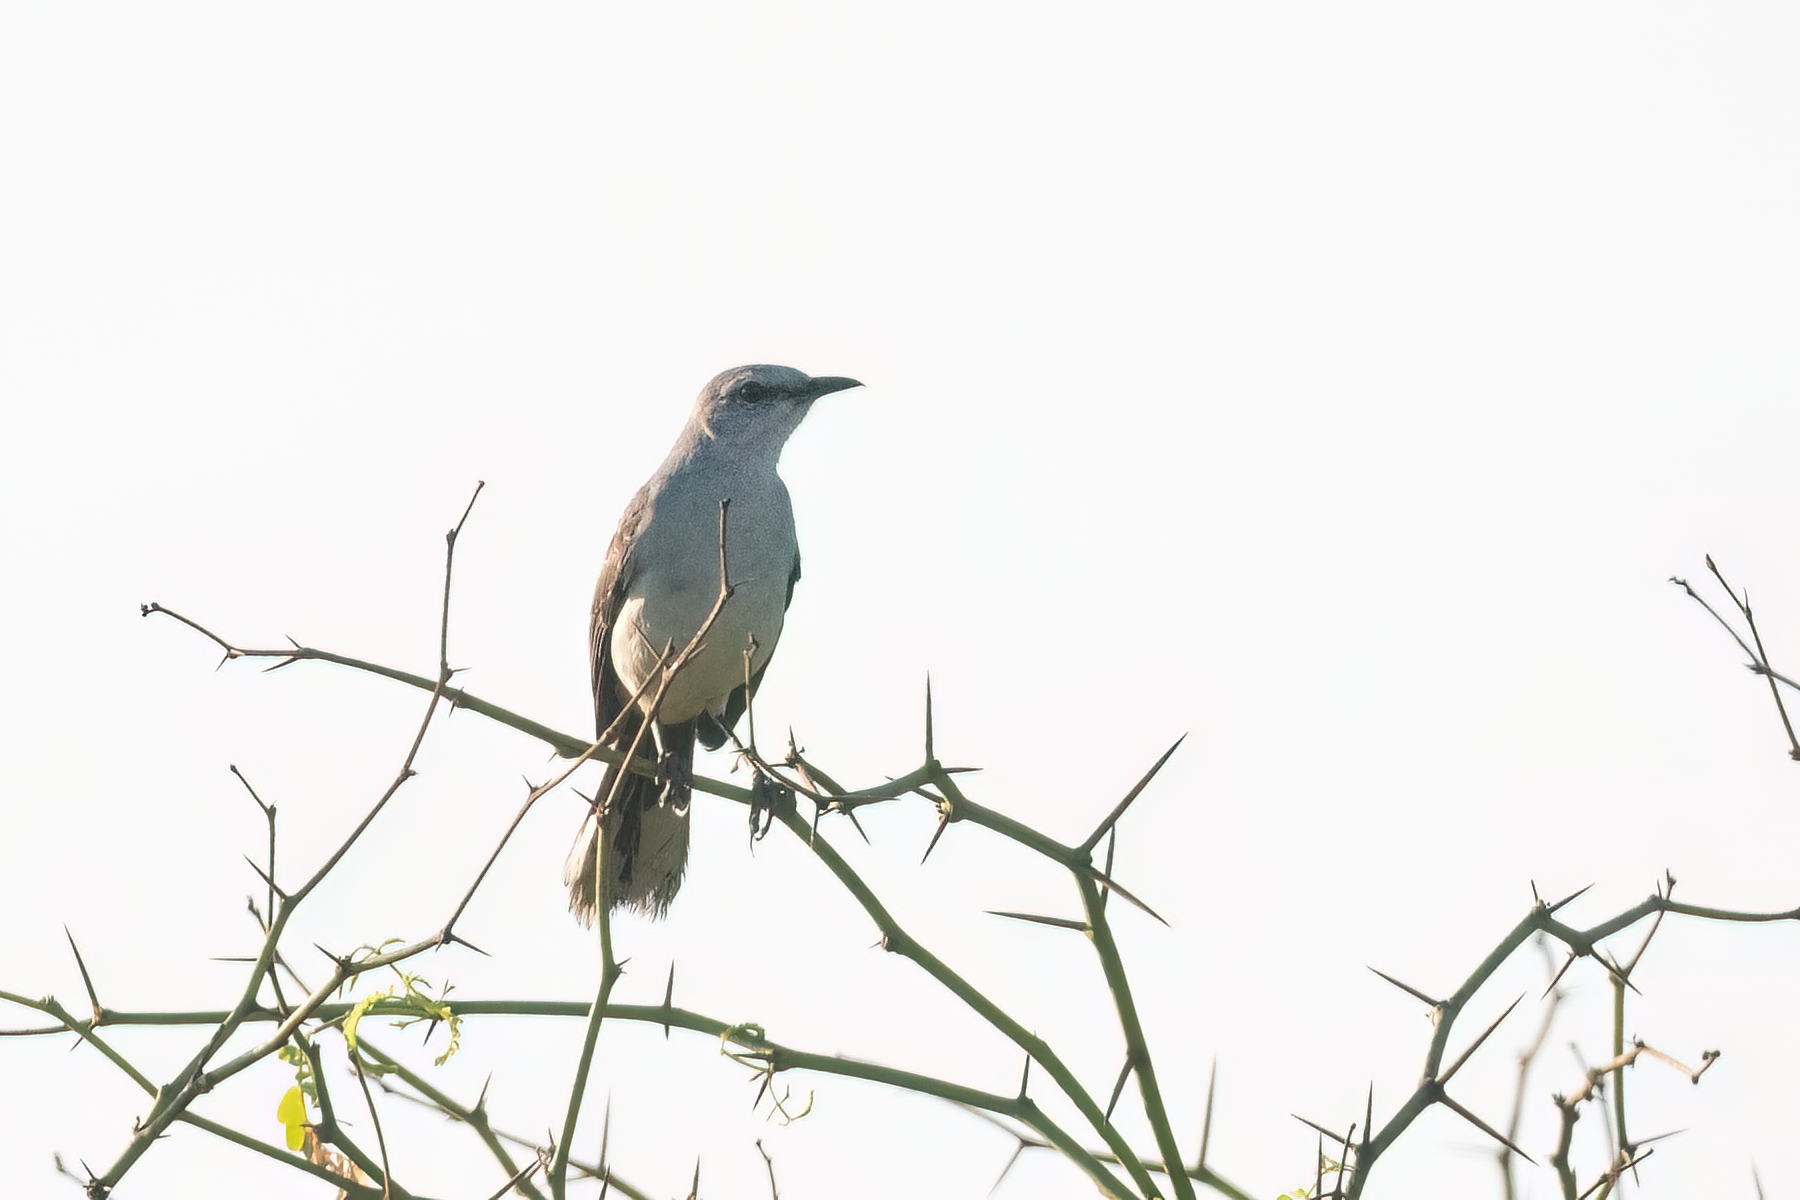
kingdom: Animalia
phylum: Chordata
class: Aves
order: Passeriformes
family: Mimidae
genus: Mimus
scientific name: Mimus gilvus
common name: Tropical mockingbird
